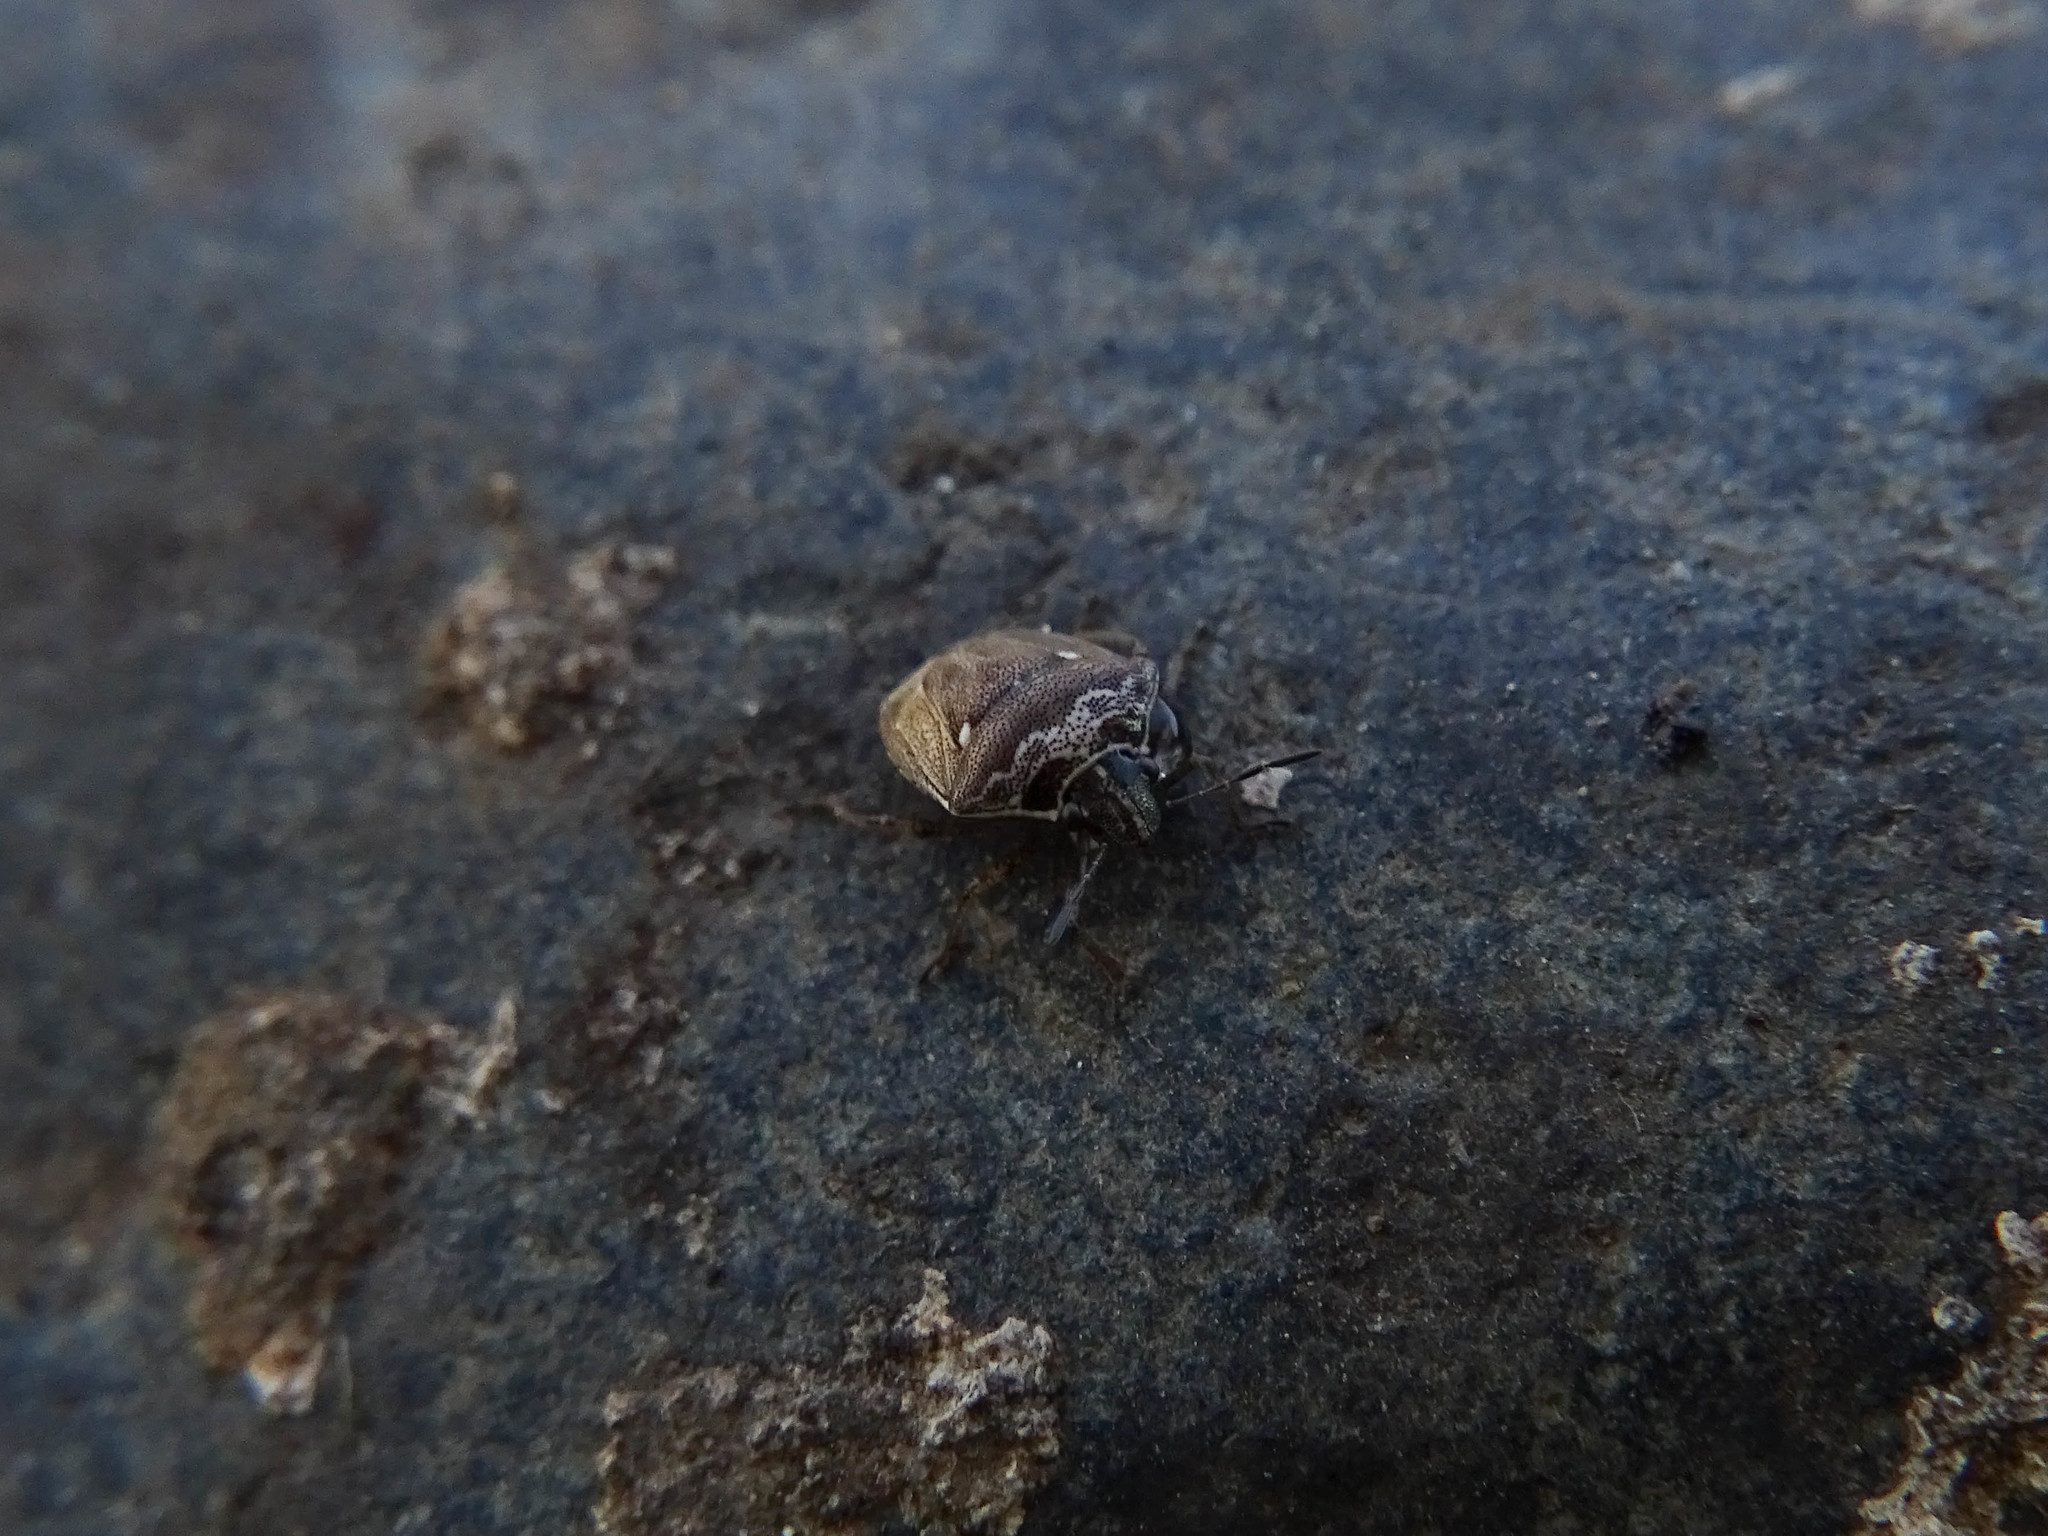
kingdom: Animalia
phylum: Arthropoda
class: Insecta
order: Hemiptera
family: Pentatomidae
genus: Eysarcoris
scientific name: Eysarcoris ventralis
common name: White-spotted stink bug
